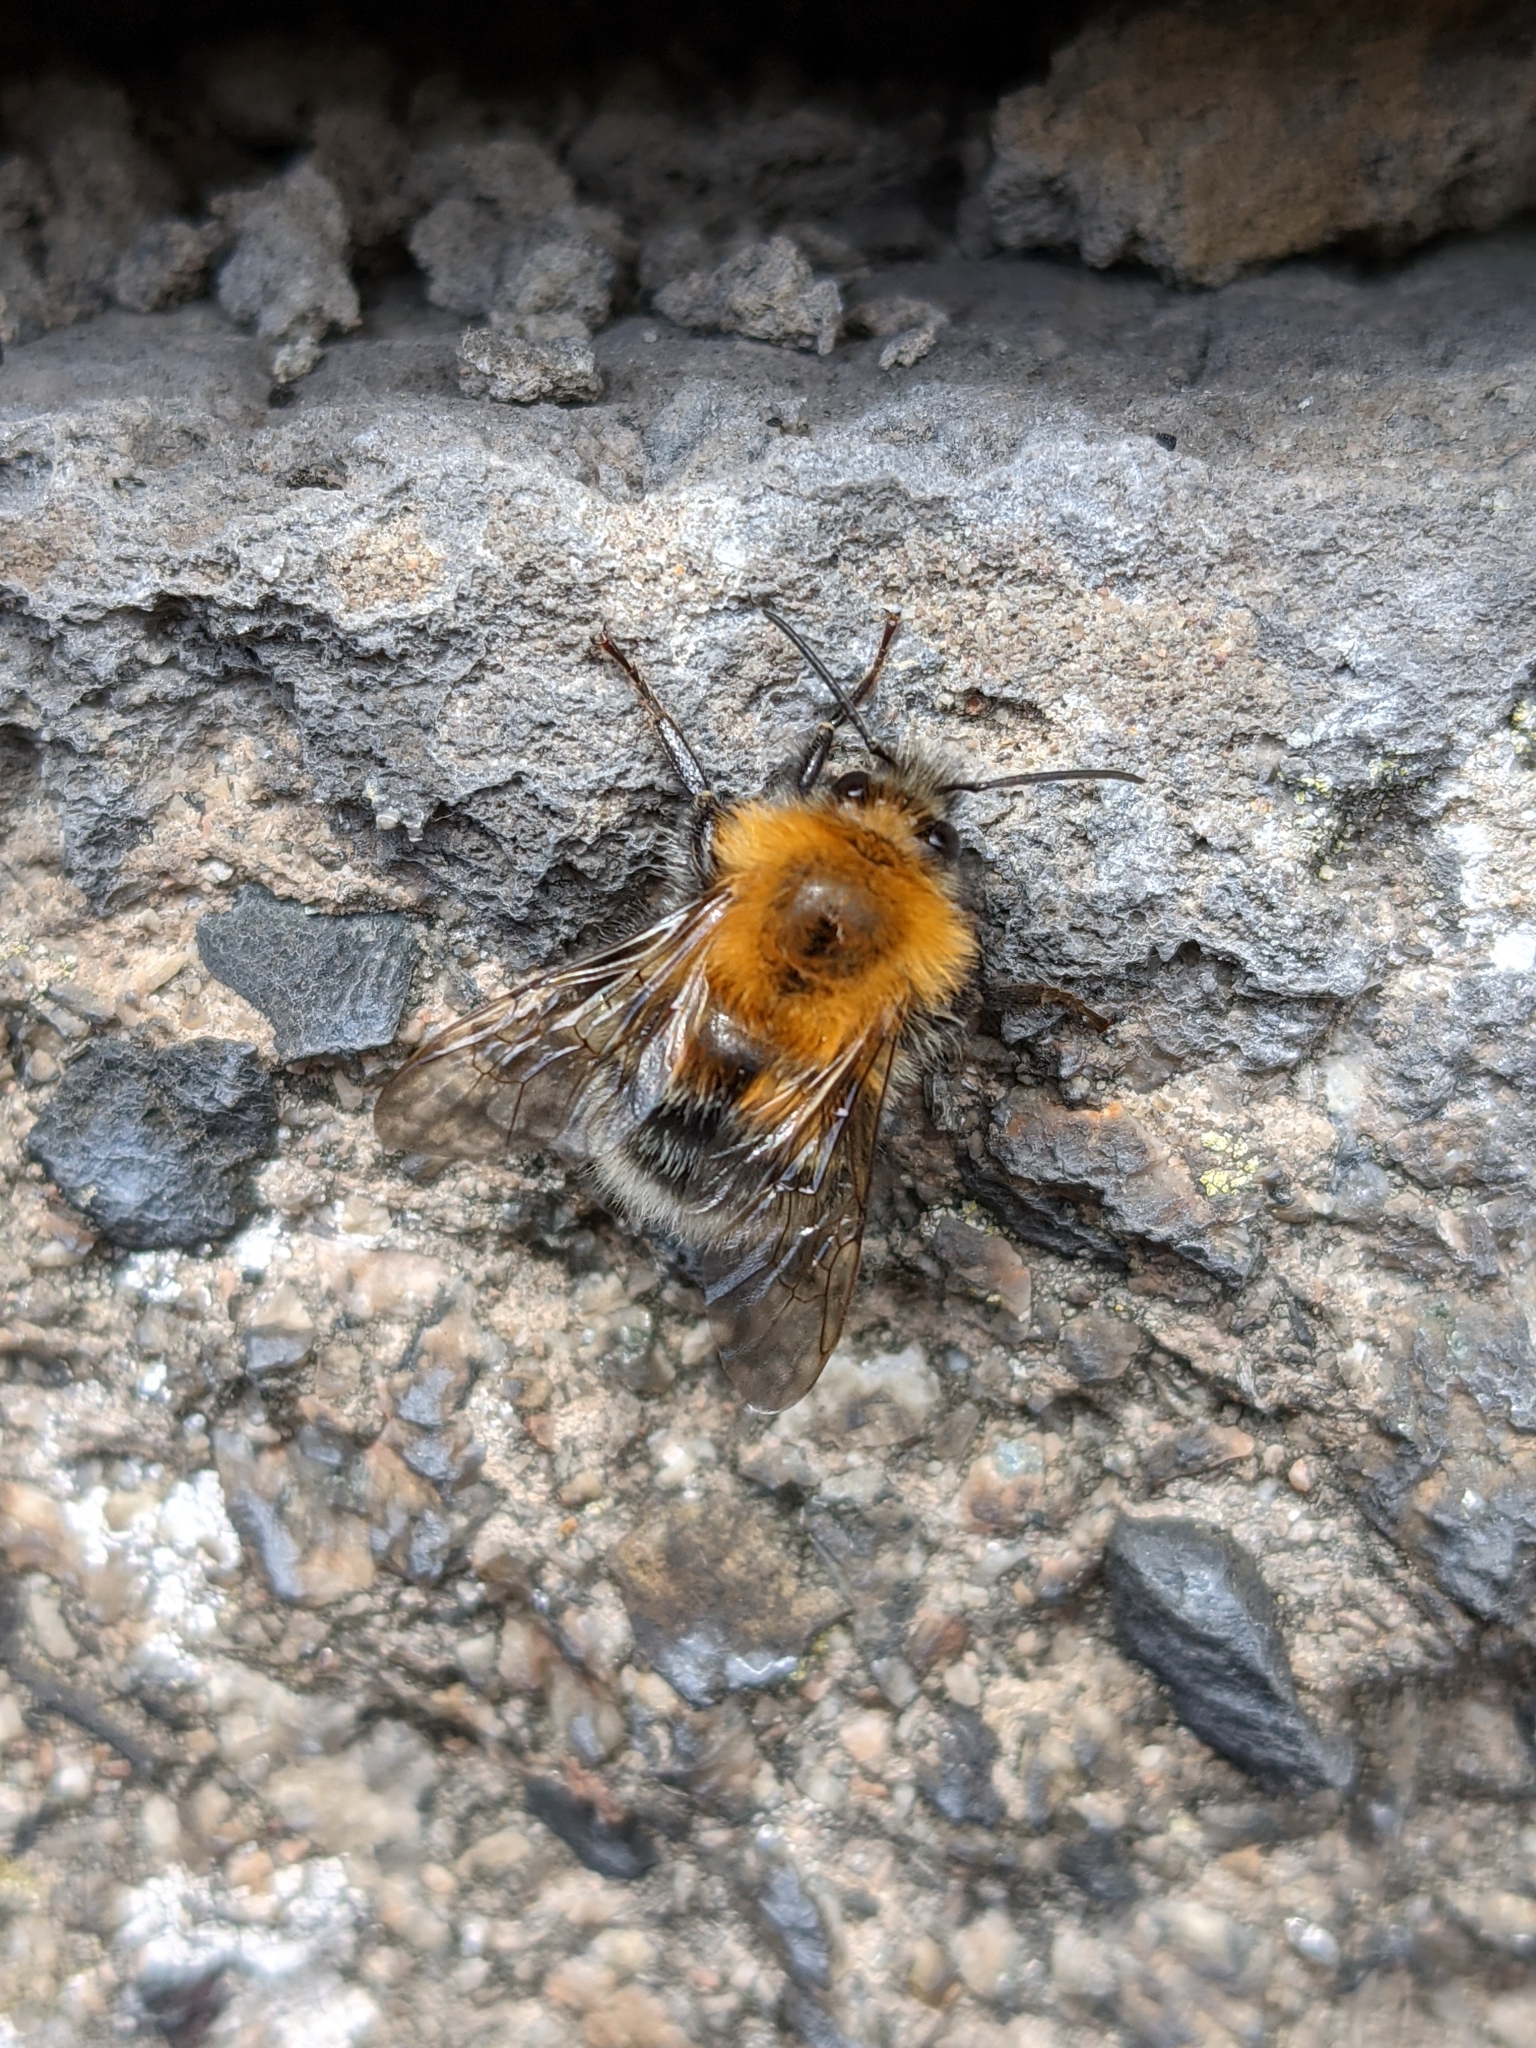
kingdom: Animalia
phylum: Arthropoda
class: Insecta
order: Hymenoptera
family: Apidae
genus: Bombus
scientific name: Bombus hypnorum
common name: New garden bumblebee
